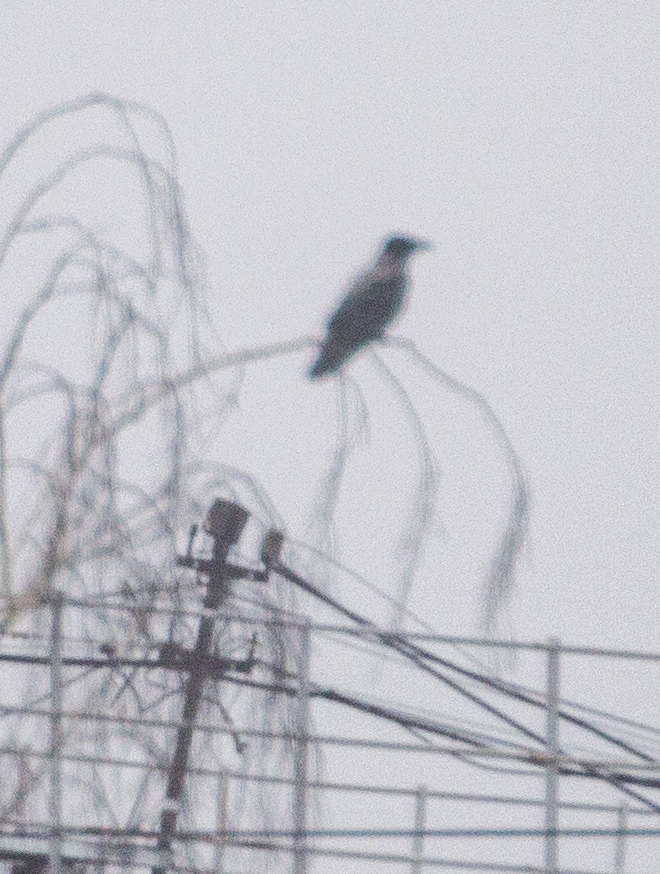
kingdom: Animalia
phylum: Chordata
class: Aves
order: Passeriformes
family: Corvidae
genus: Corvus
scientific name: Corvus cornix
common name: Hooded crow
